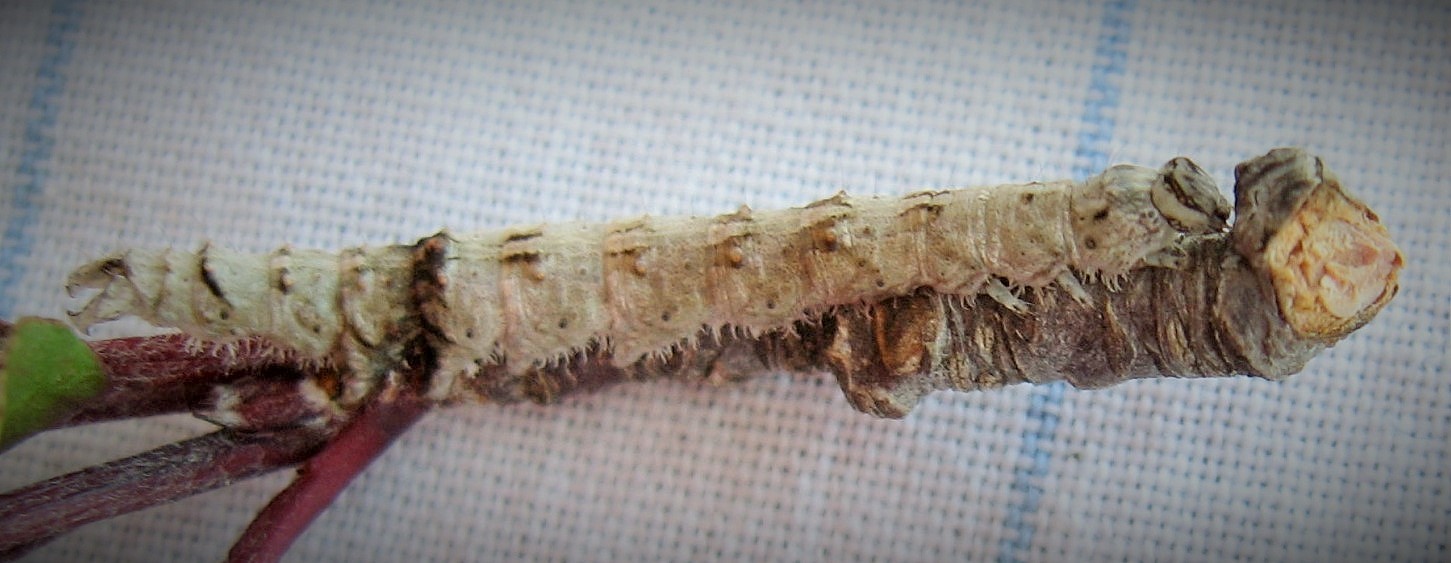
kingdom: Animalia
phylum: Arthropoda
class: Insecta
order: Lepidoptera
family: Erebidae
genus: Catocala
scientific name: Catocala blandula
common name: Charming underwing
